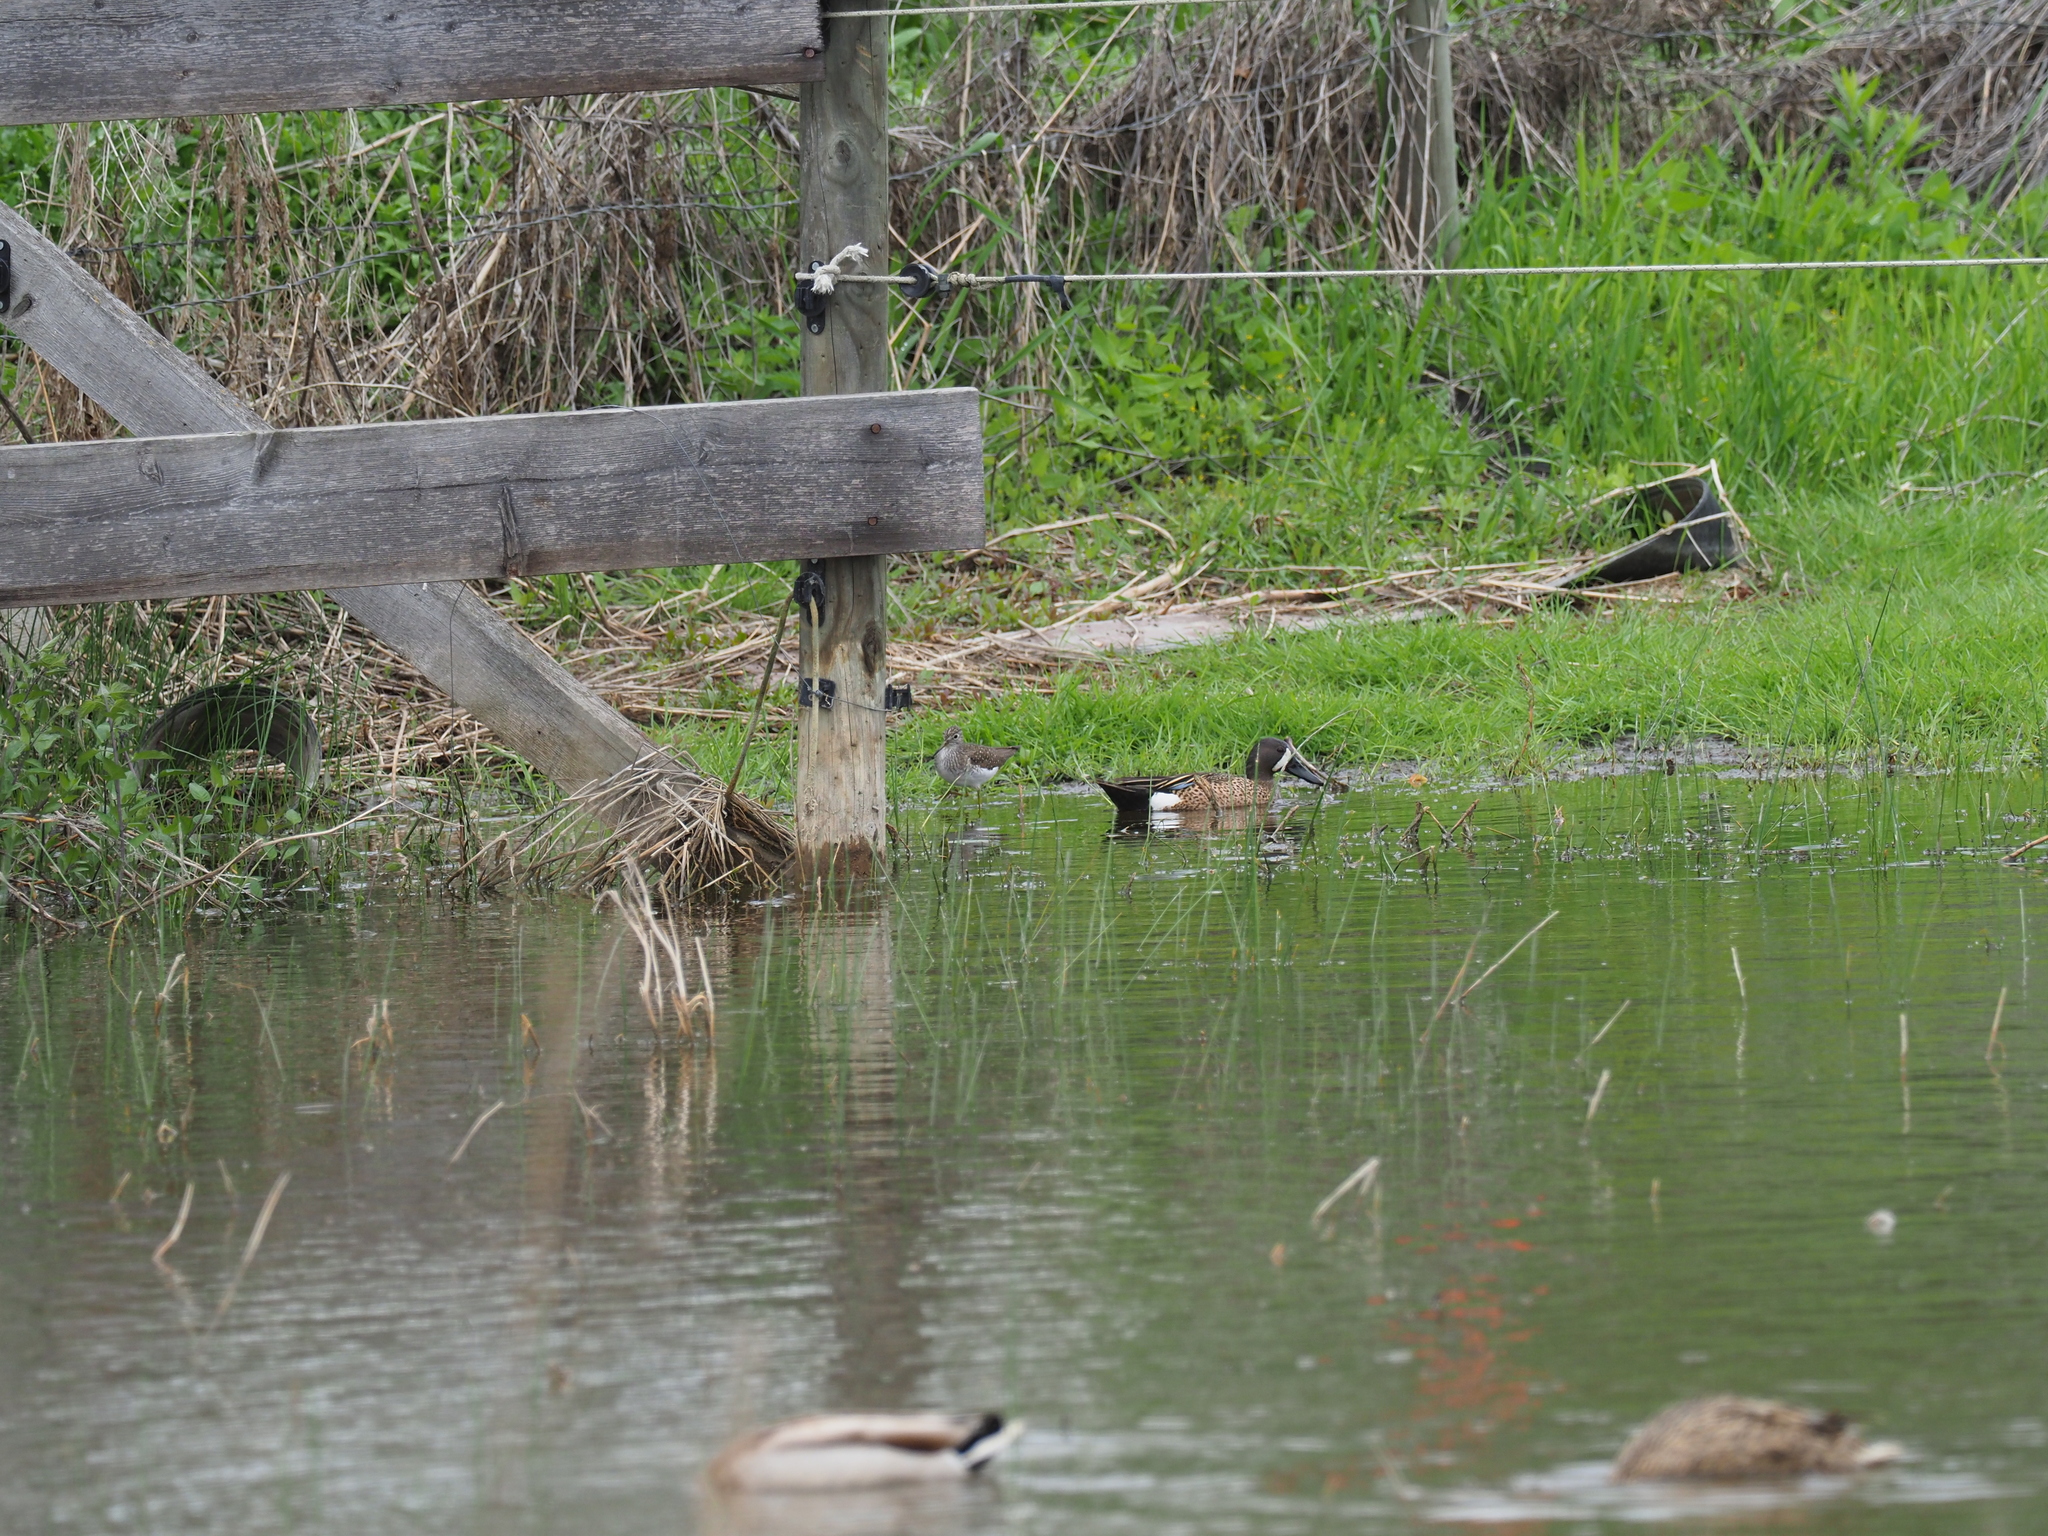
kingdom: Animalia
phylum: Chordata
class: Aves
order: Anseriformes
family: Anatidae
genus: Spatula
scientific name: Spatula discors
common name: Blue-winged teal
